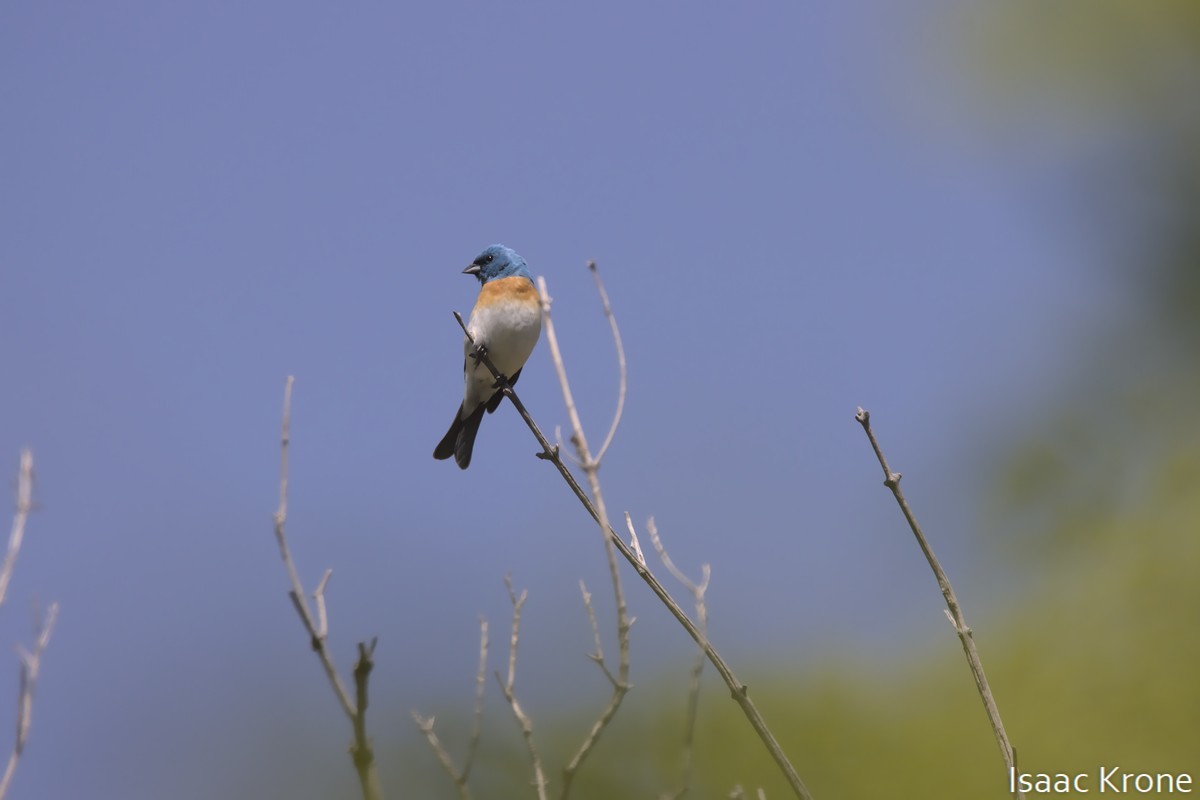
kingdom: Animalia
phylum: Chordata
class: Aves
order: Passeriformes
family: Cardinalidae
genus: Passerina
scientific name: Passerina amoena
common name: Lazuli bunting
